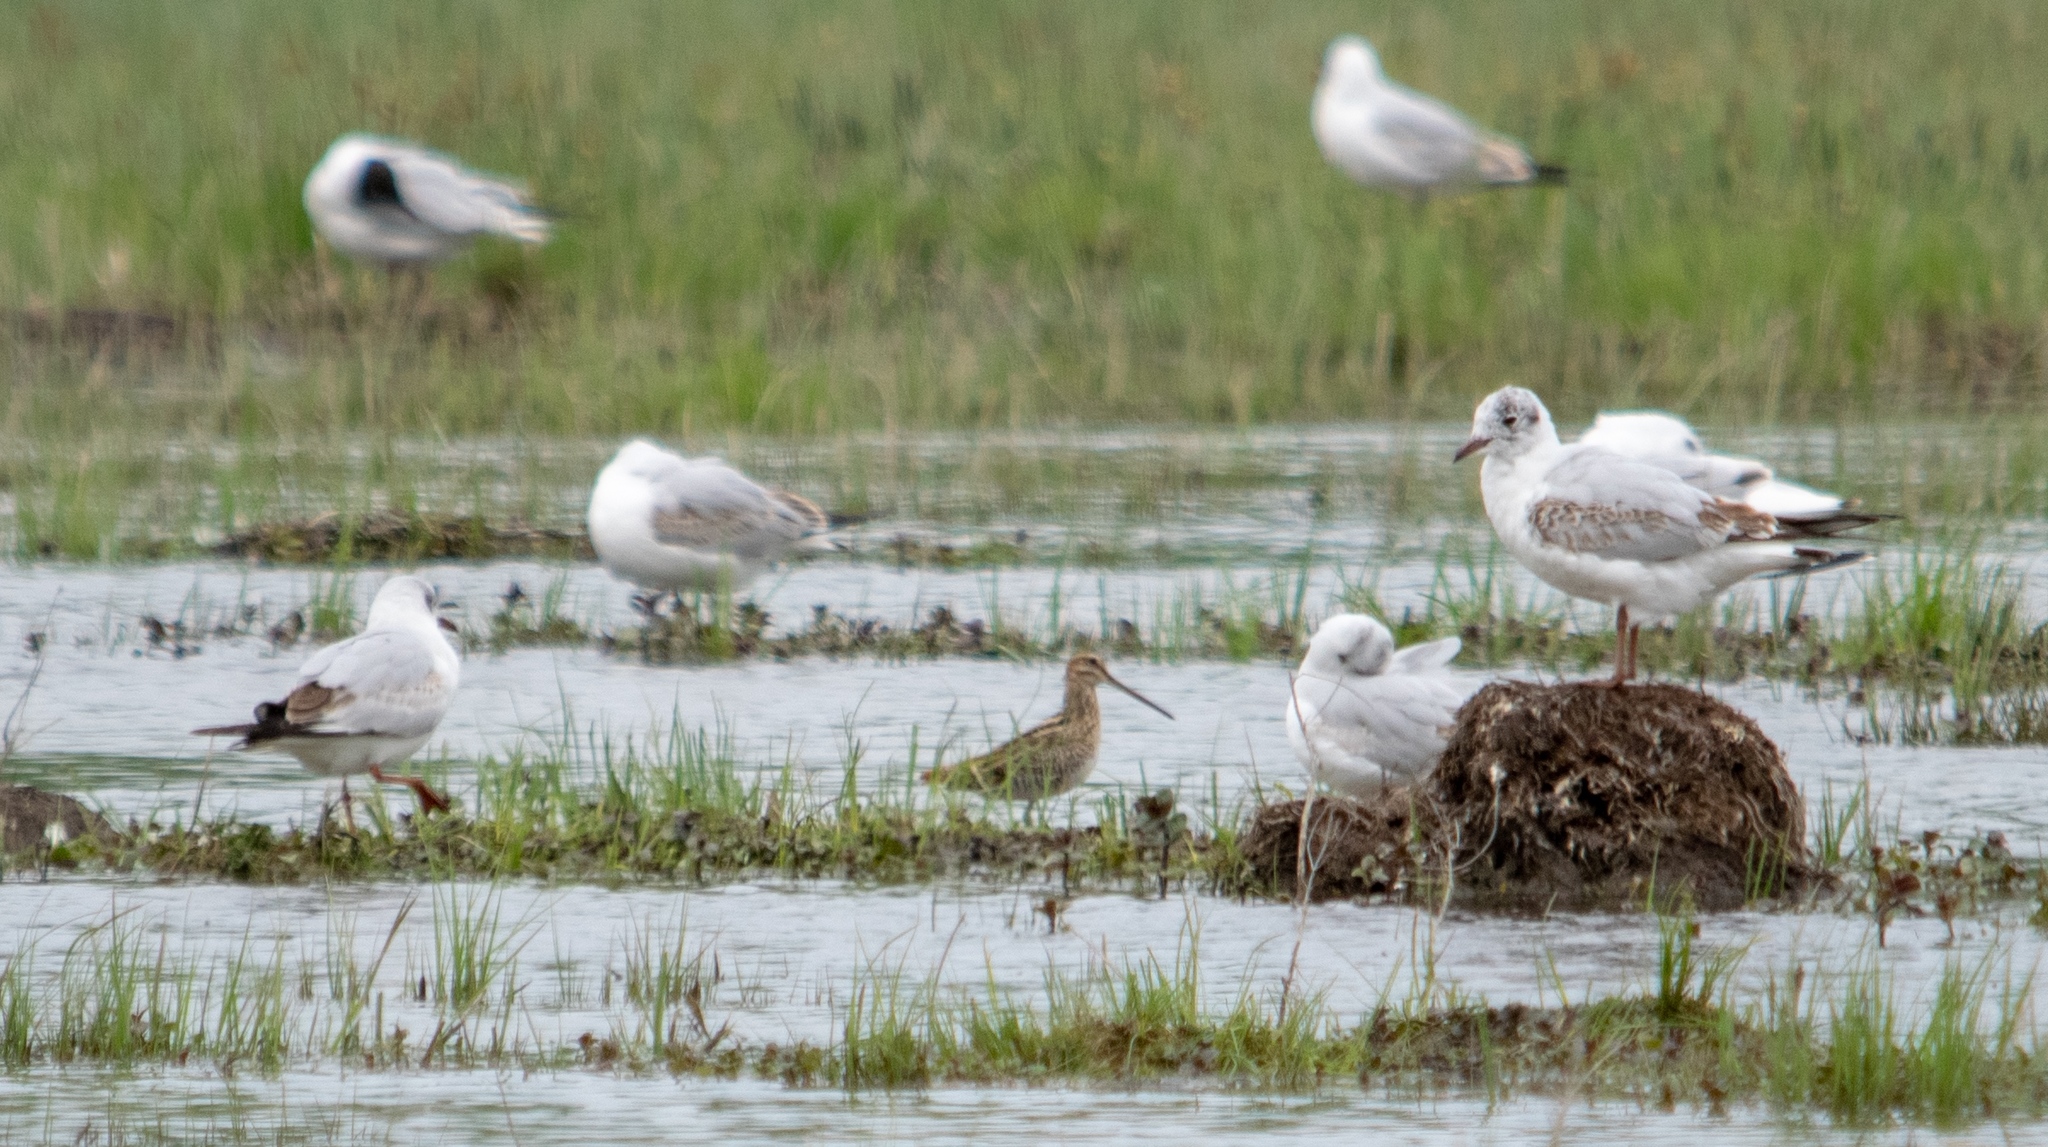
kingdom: Animalia
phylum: Chordata
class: Aves
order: Charadriiformes
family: Laridae
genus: Chroicocephalus
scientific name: Chroicocephalus ridibundus
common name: Black-headed gull
